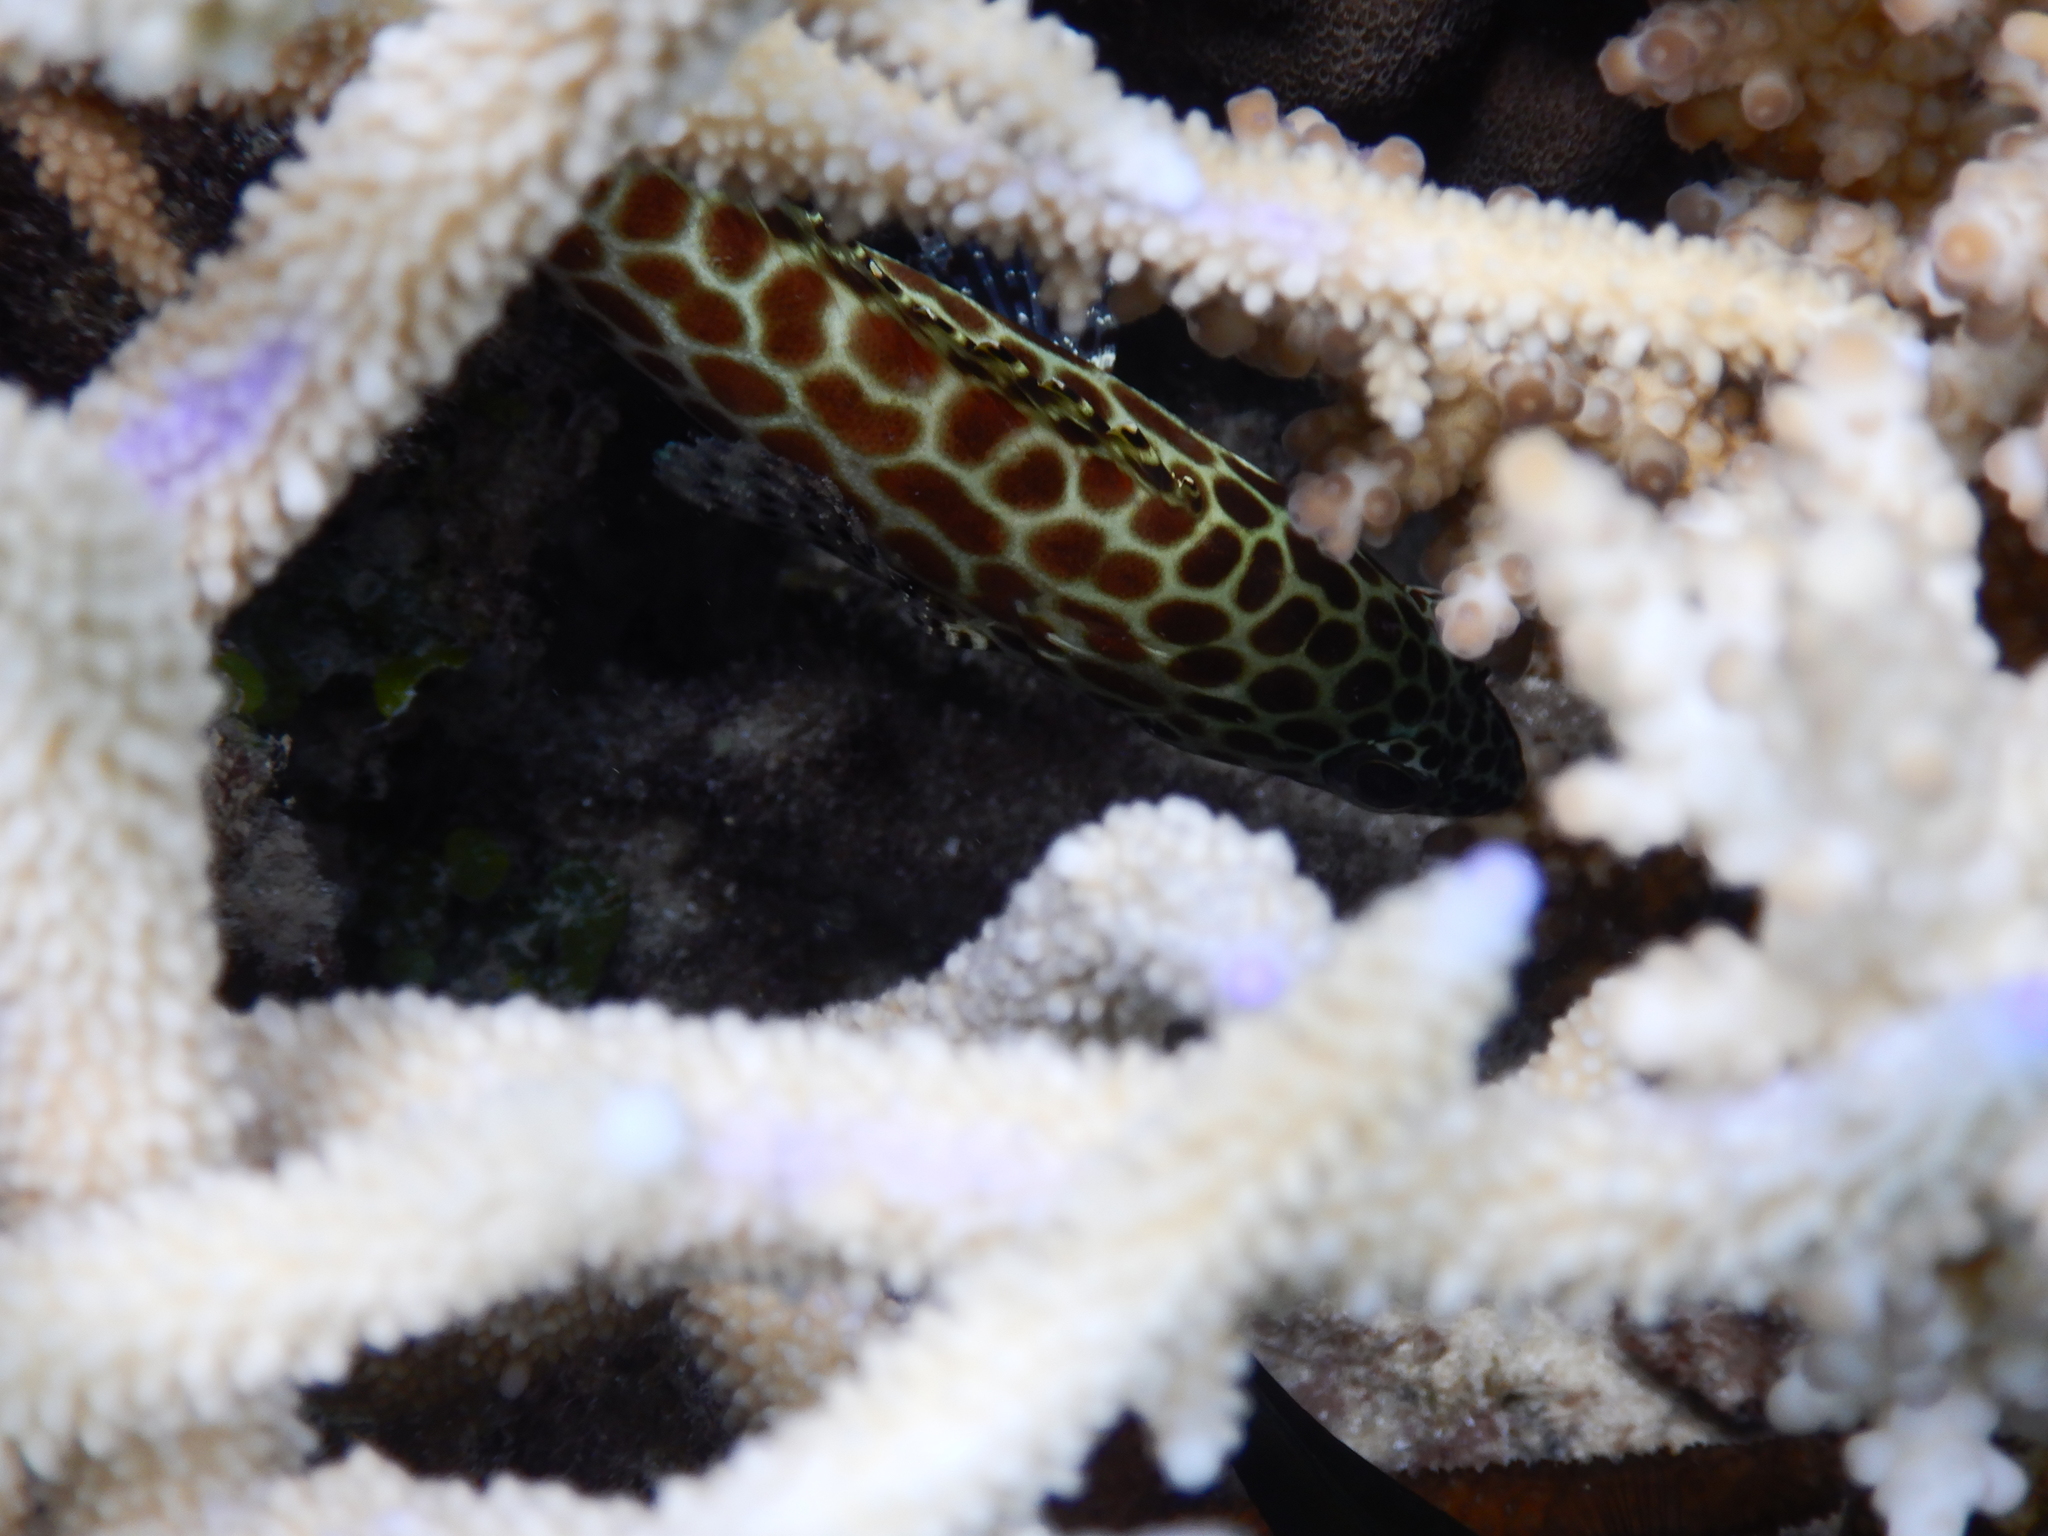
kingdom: Animalia
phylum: Chordata
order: Perciformes
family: Serranidae
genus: Epinephelus
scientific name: Epinephelus merra
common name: Honeycomb grouper
